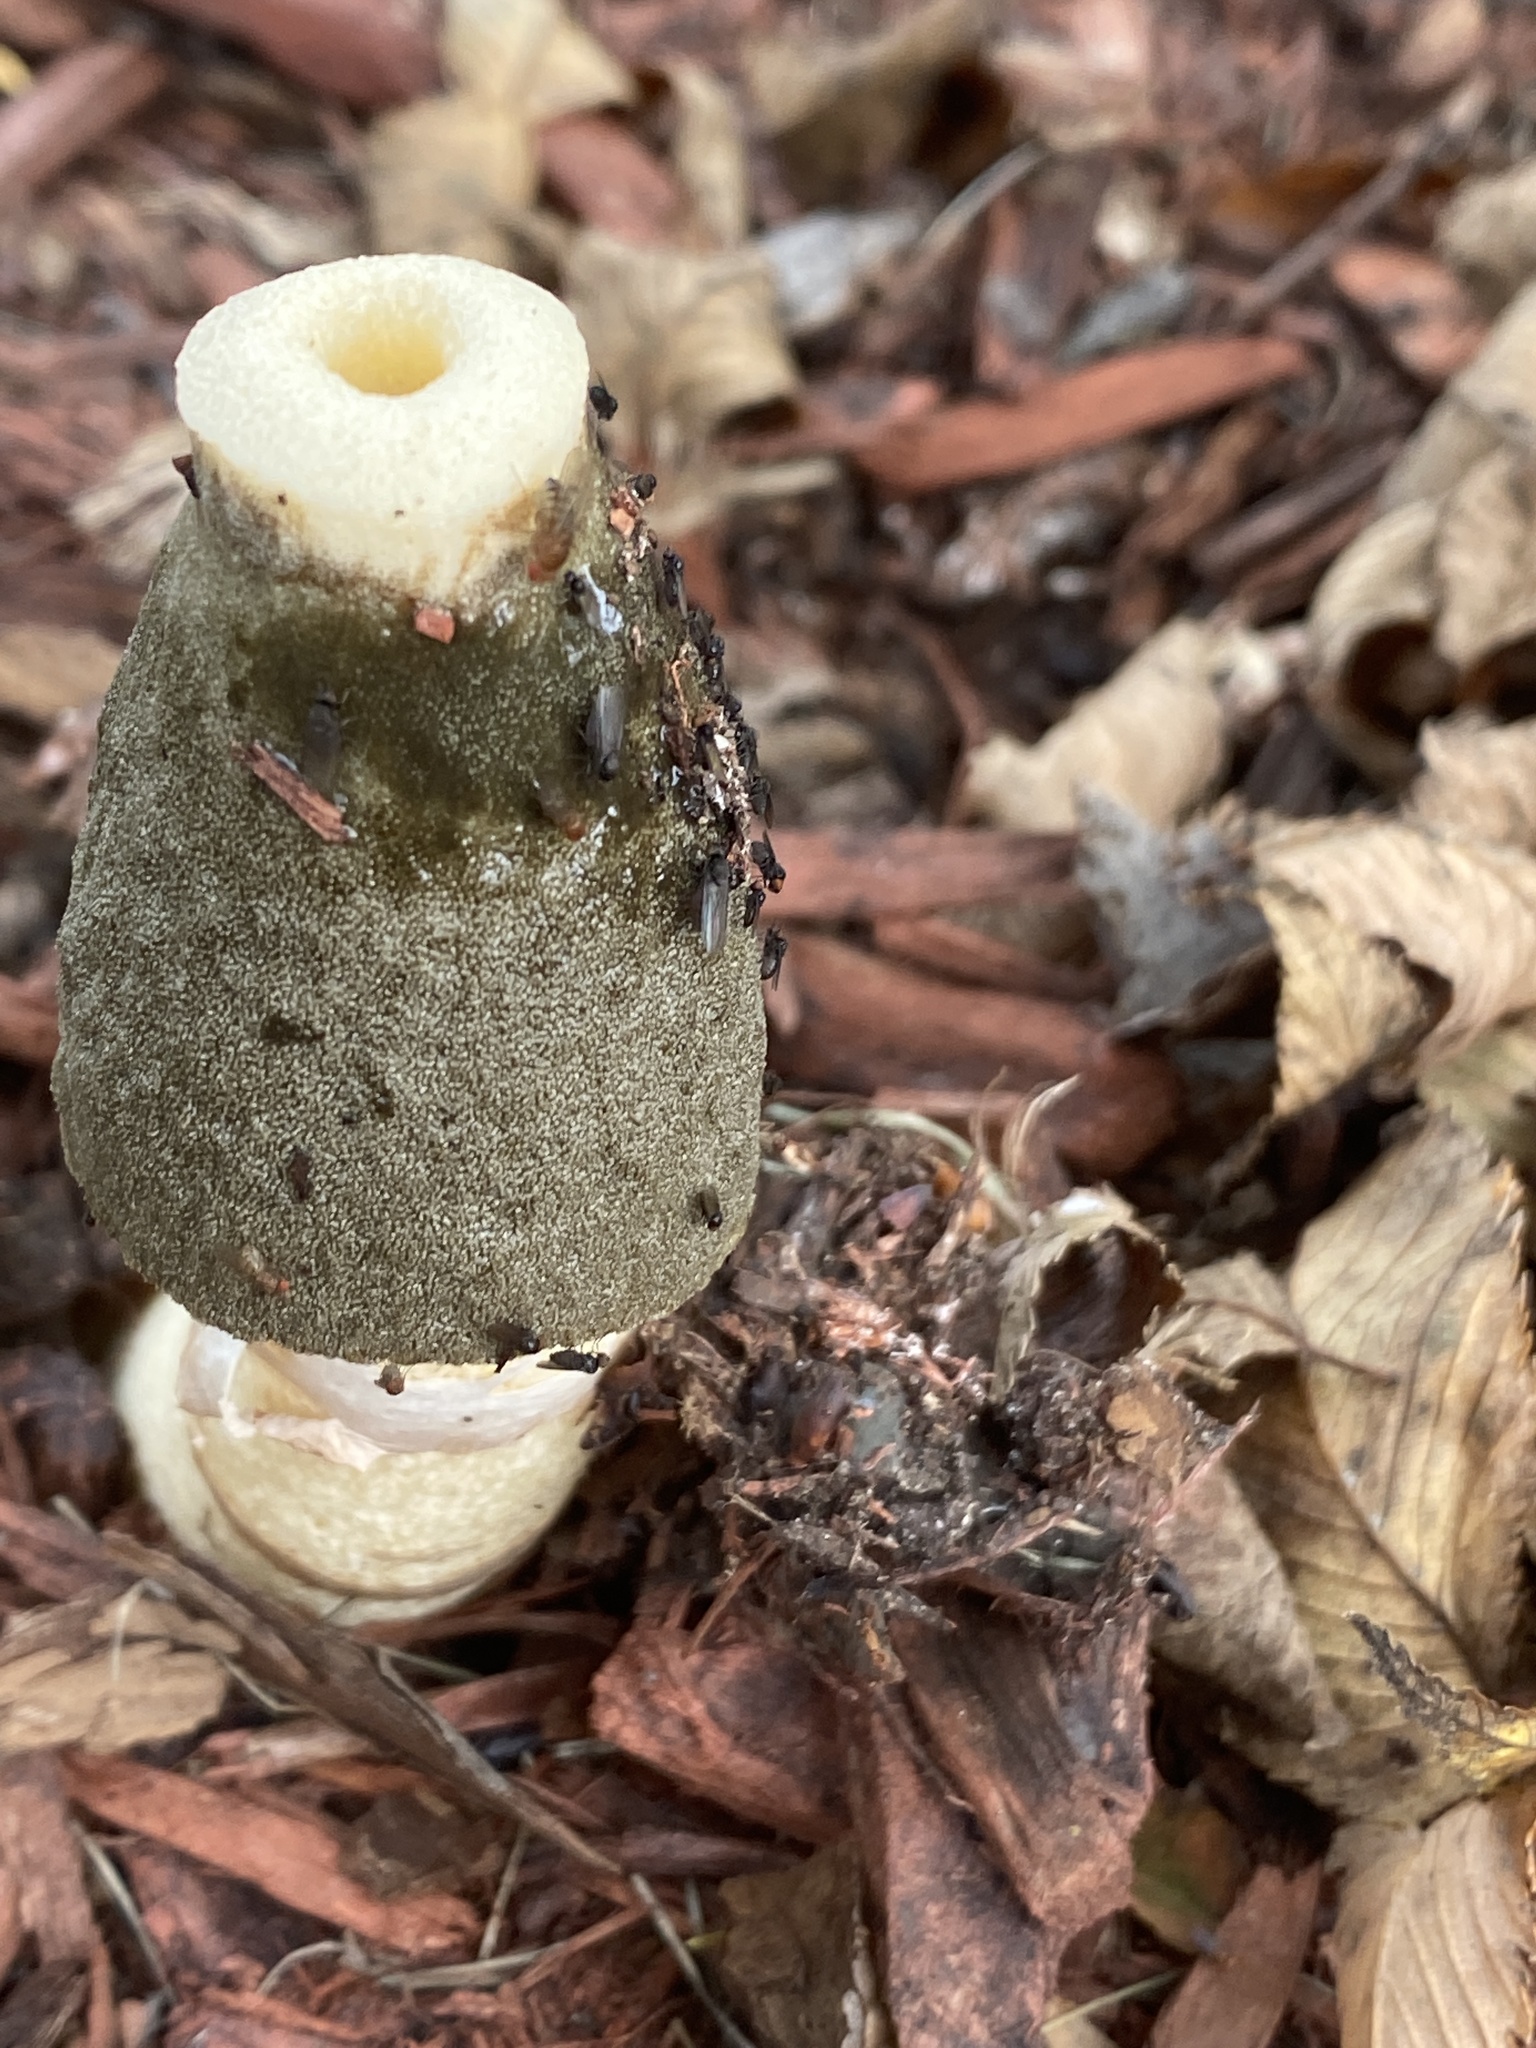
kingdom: Fungi
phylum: Basidiomycota
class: Agaricomycetes
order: Phallales
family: Phallaceae
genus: Phallus
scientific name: Phallus ravenelii
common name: Ravenel's stinkhorn
